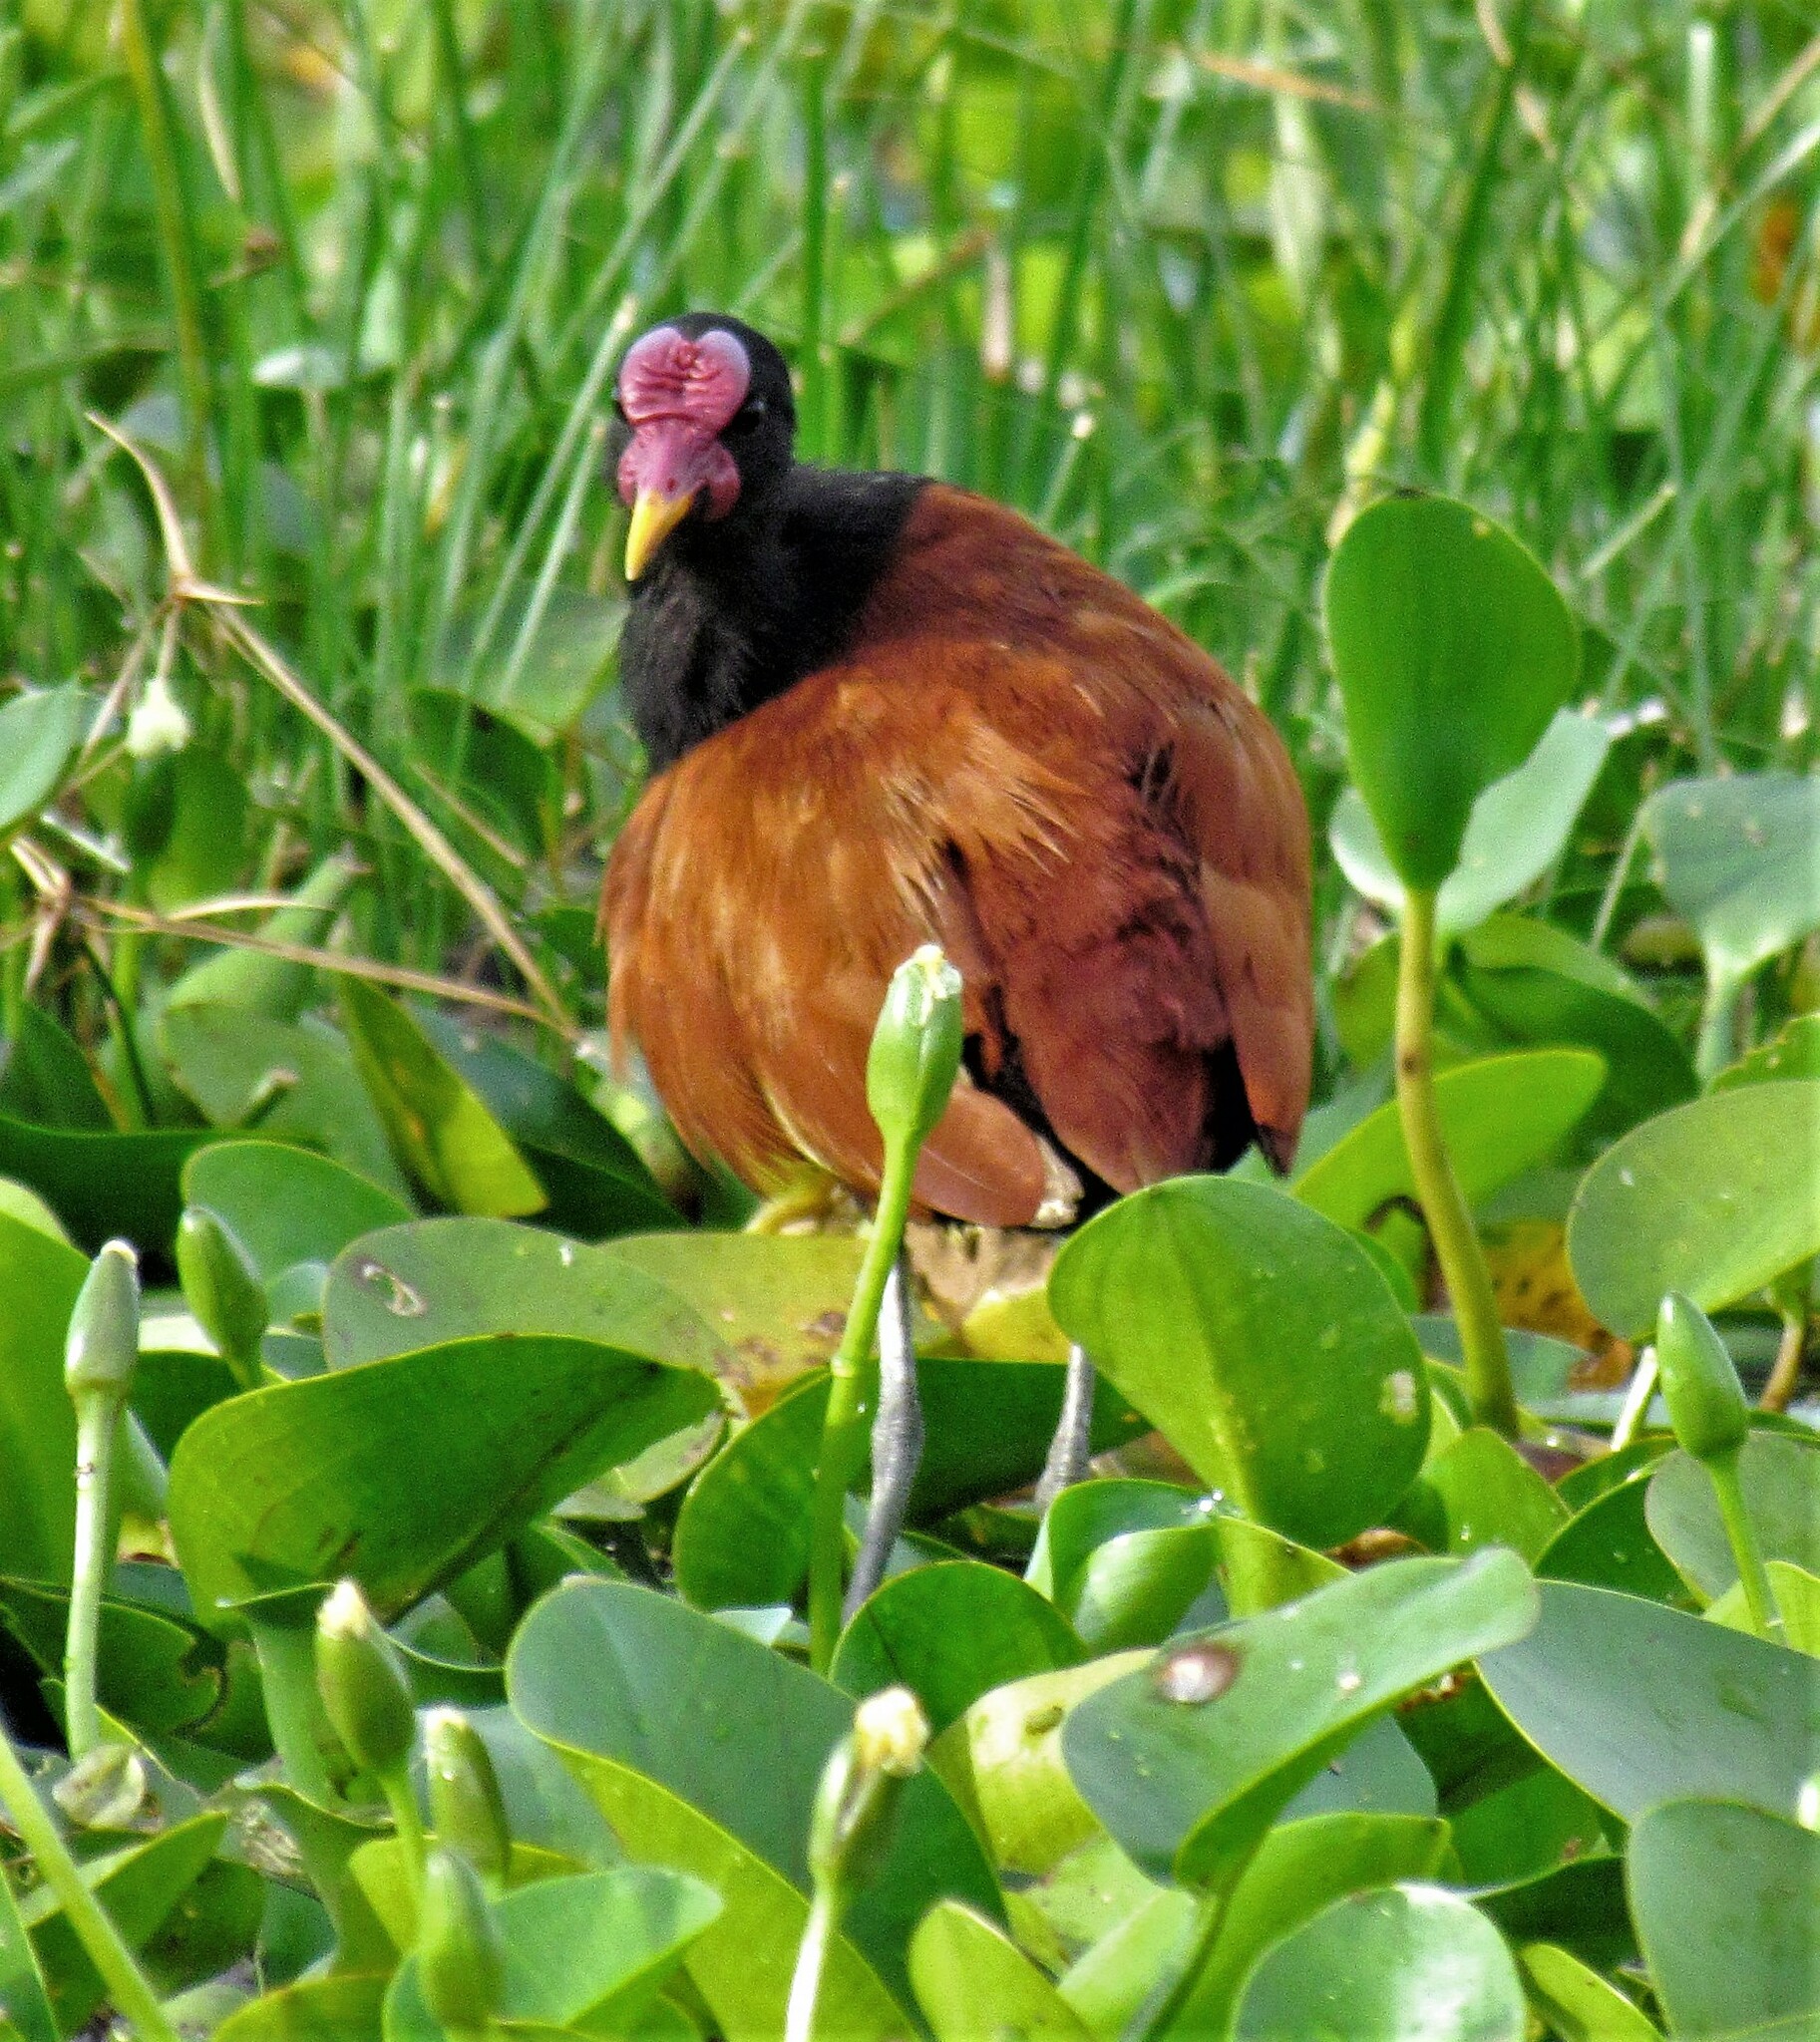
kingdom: Animalia
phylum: Chordata
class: Aves
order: Charadriiformes
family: Jacanidae
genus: Jacana
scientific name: Jacana jacana
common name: Wattled jacana
